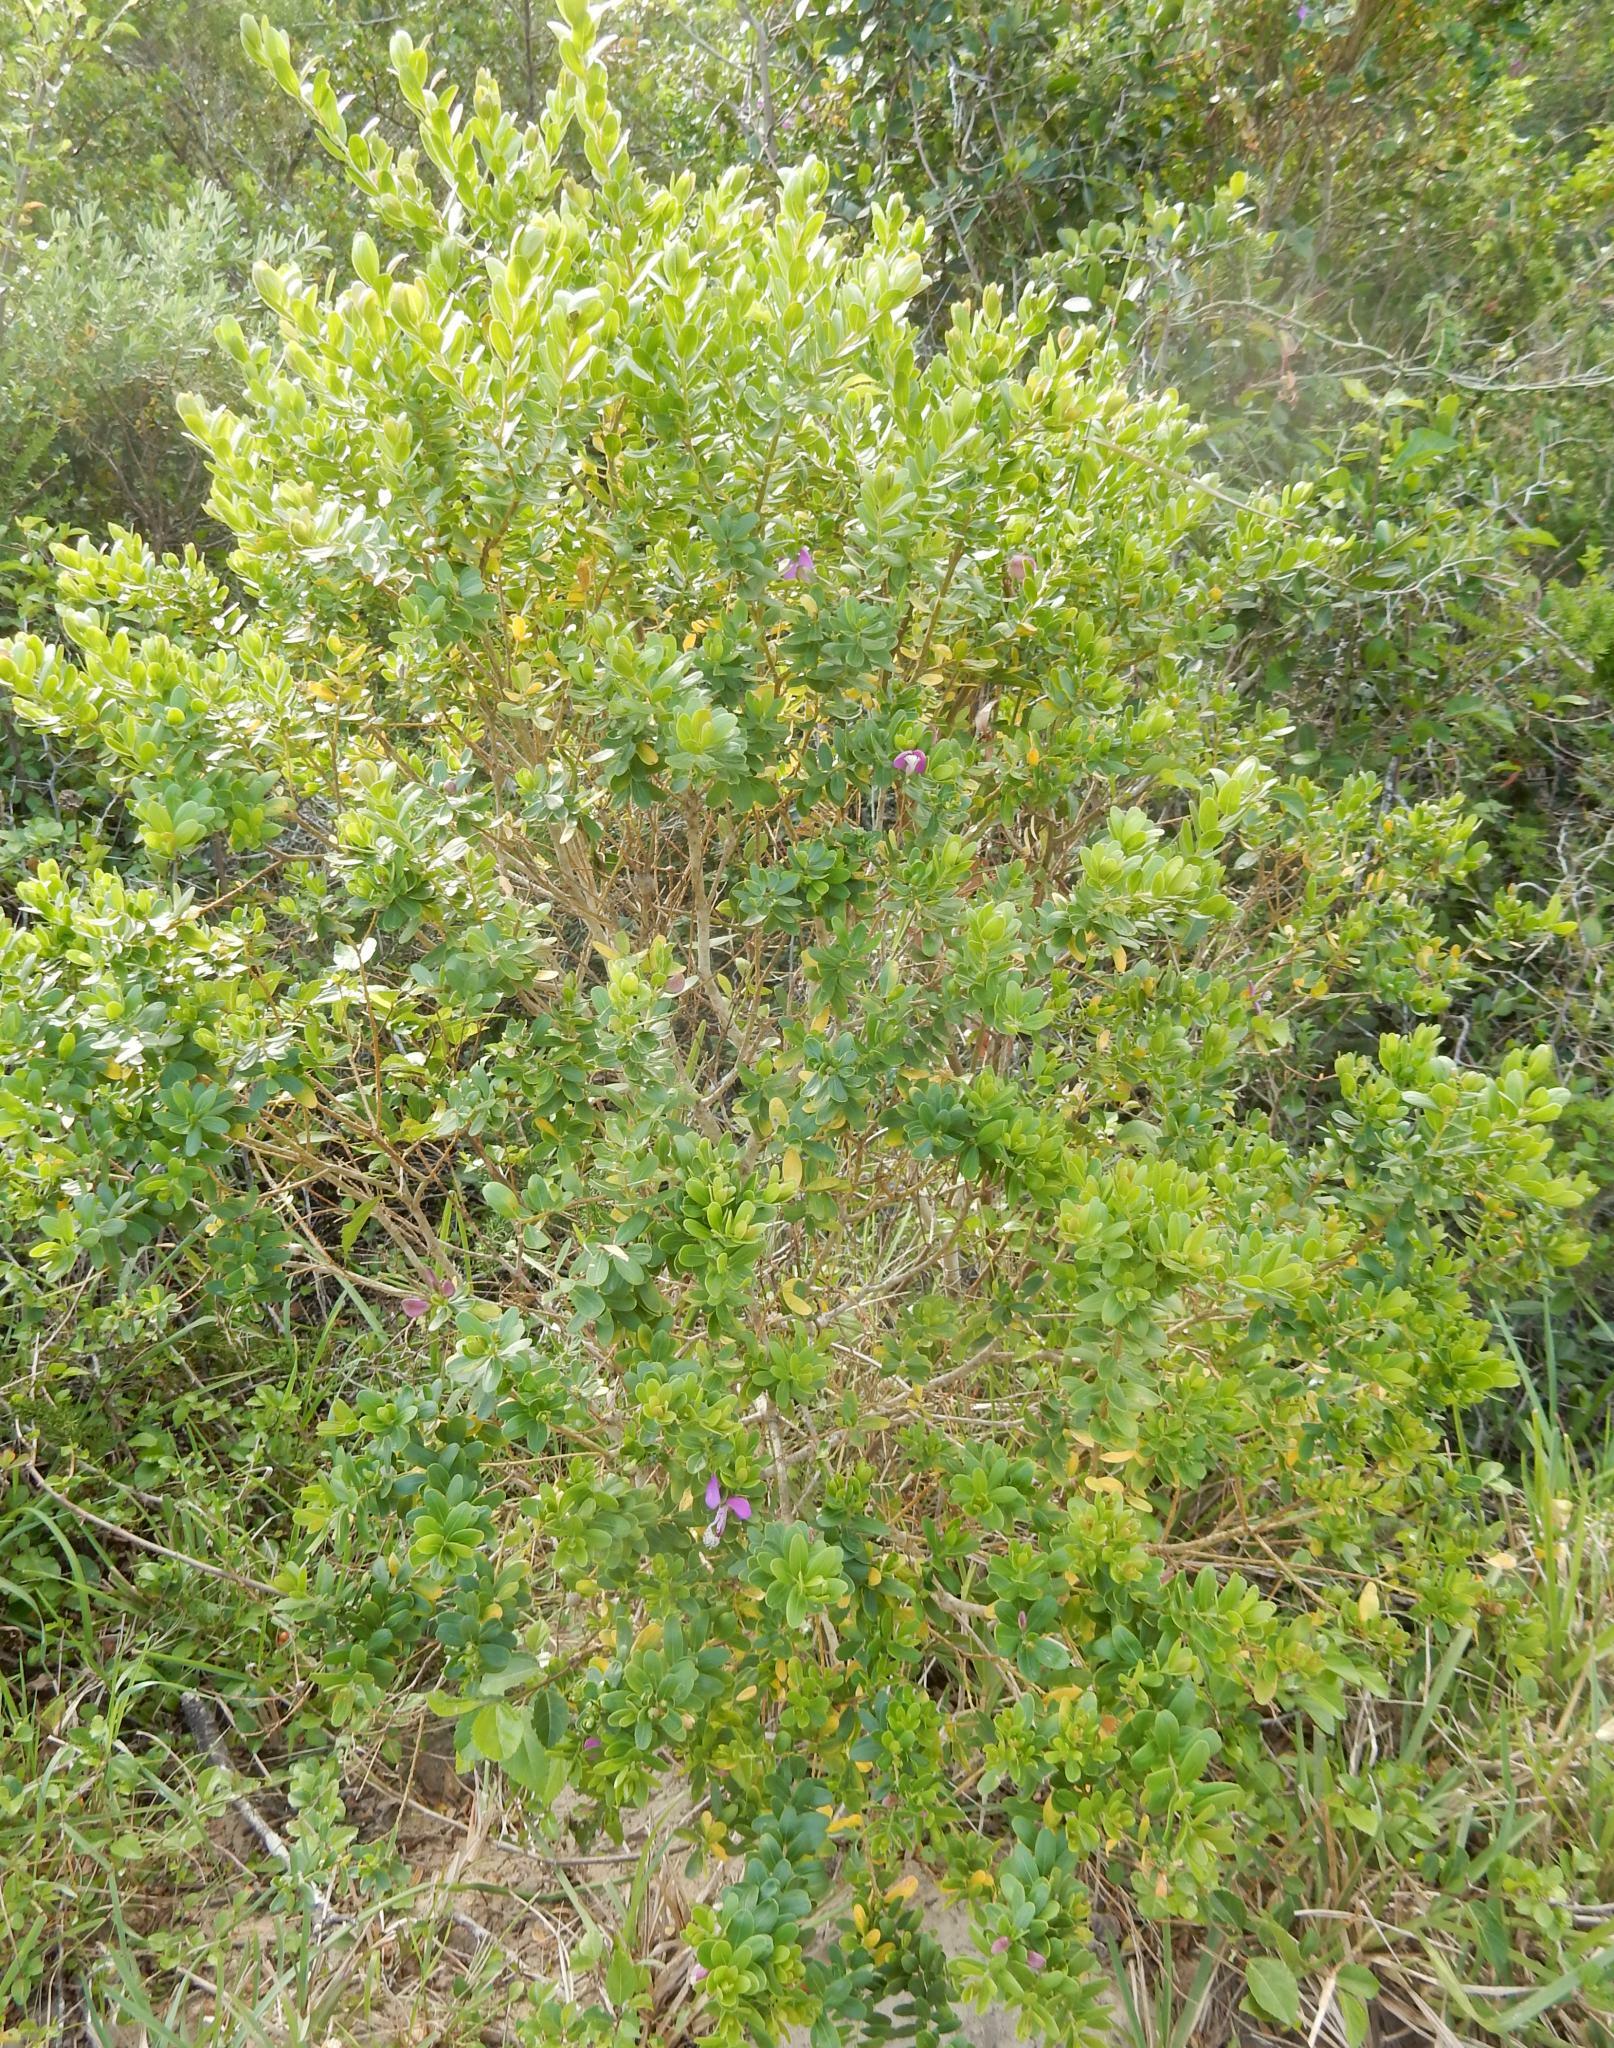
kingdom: Plantae
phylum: Tracheophyta
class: Magnoliopsida
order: Fabales
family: Polygalaceae
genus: Polygala
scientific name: Polygala myrtifolia
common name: Myrtle-leaf milkwort
